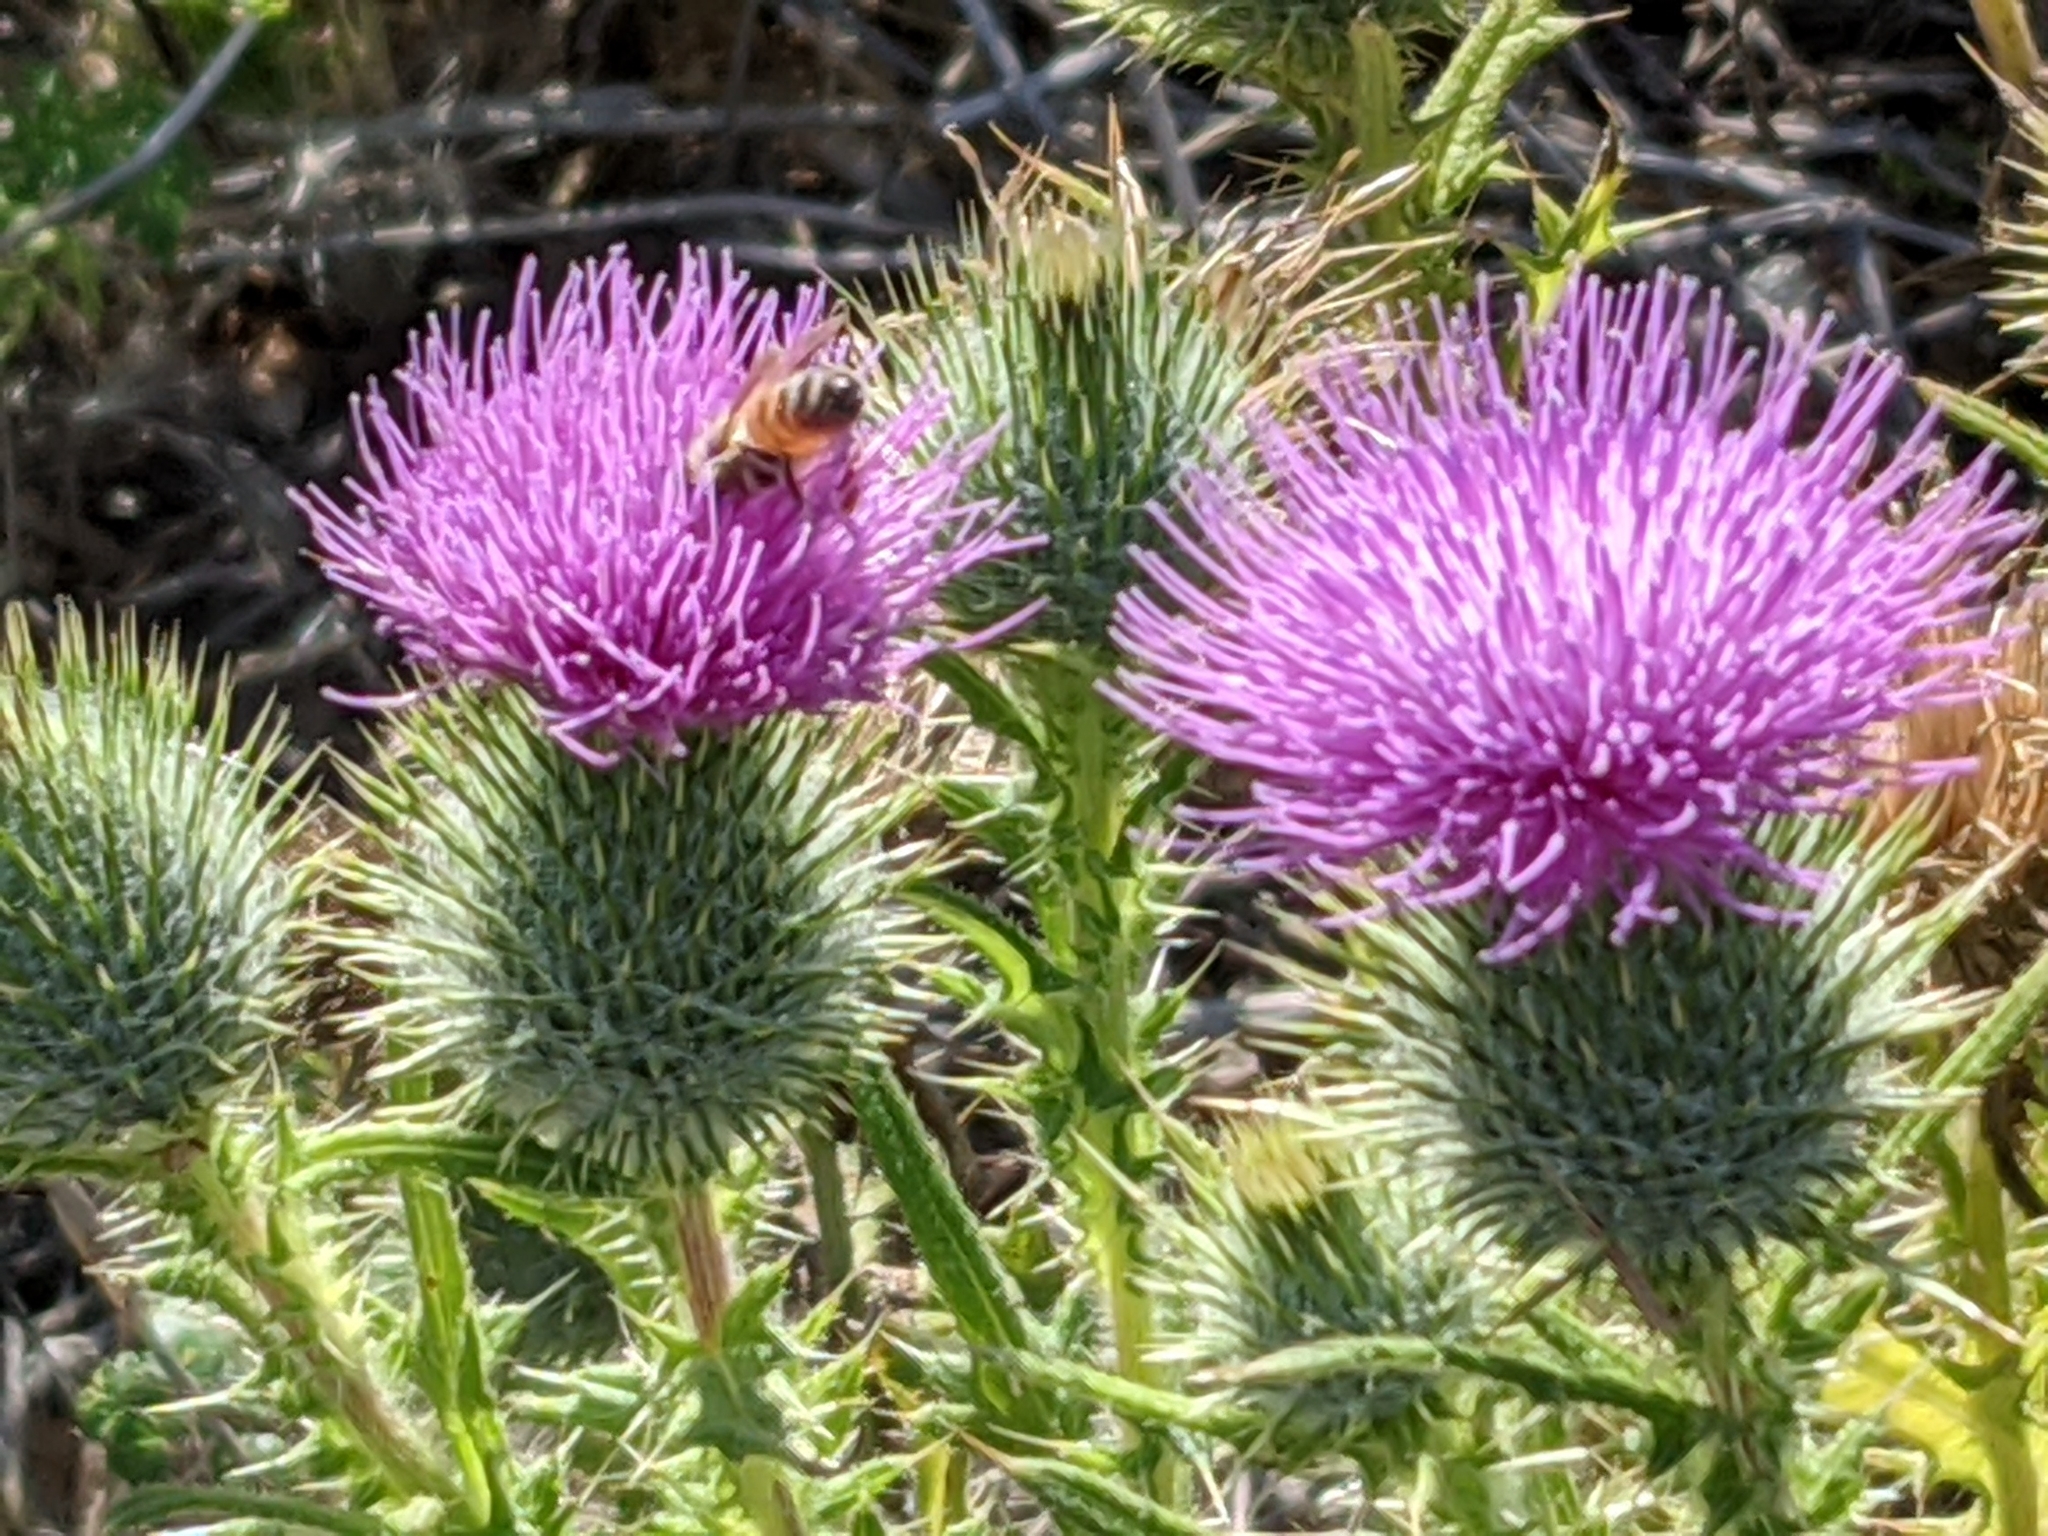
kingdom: Plantae
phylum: Tracheophyta
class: Magnoliopsida
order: Asterales
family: Asteraceae
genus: Cirsium
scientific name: Cirsium vulgare
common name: Bull thistle
